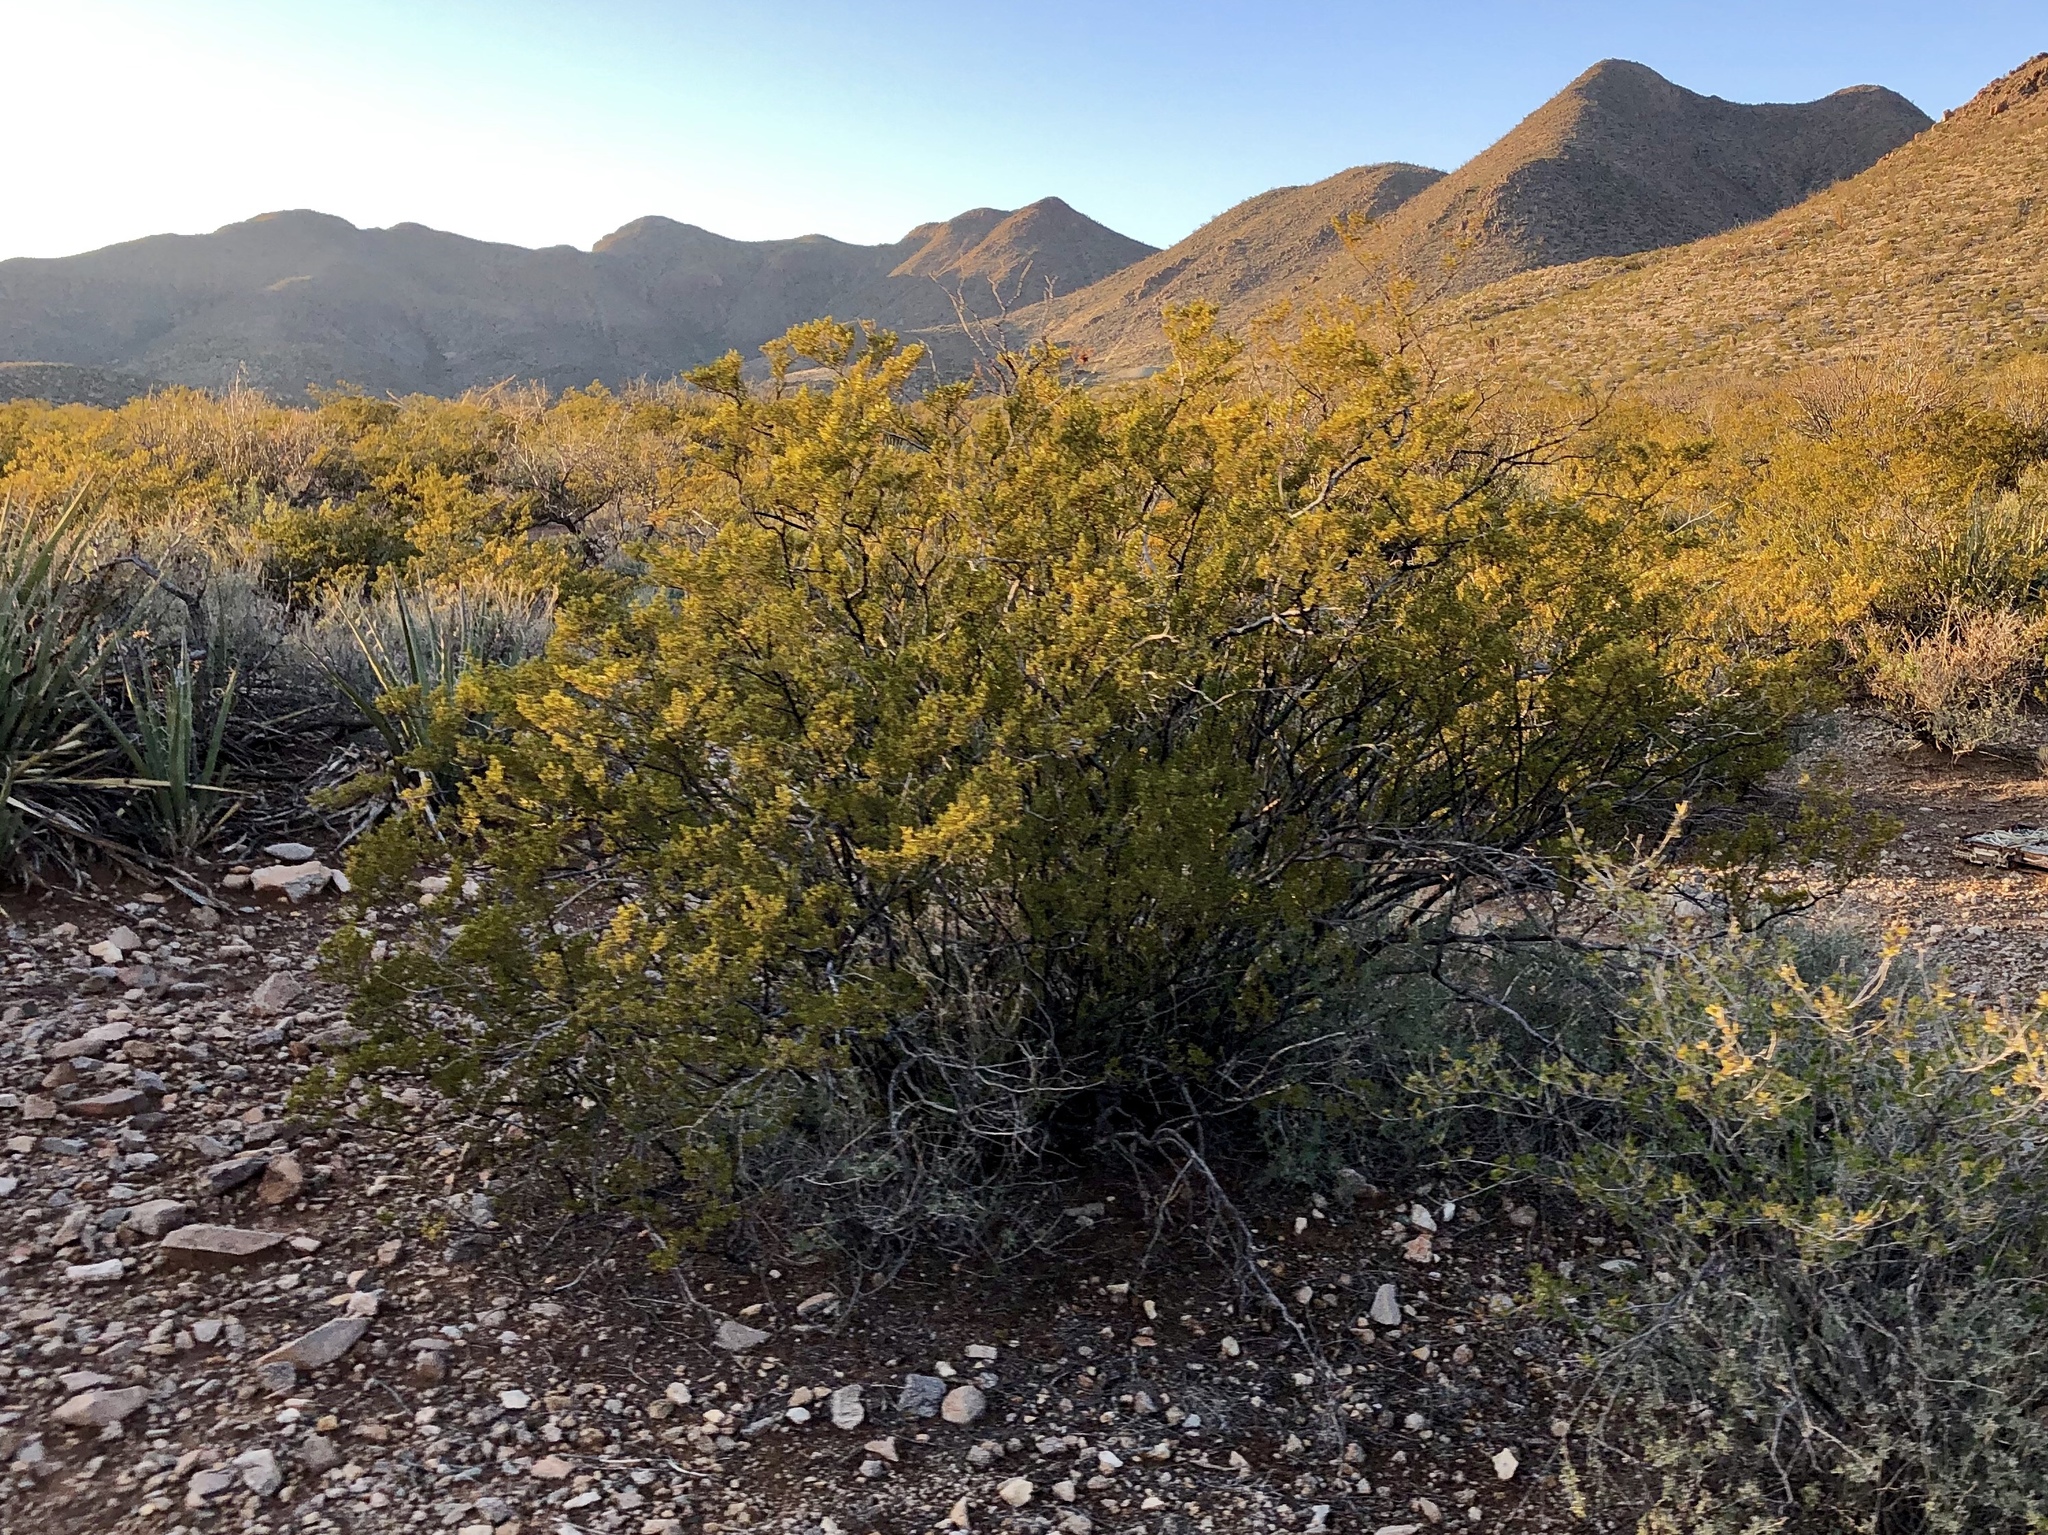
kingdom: Plantae
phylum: Tracheophyta
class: Magnoliopsida
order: Zygophyllales
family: Zygophyllaceae
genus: Larrea
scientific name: Larrea tridentata
